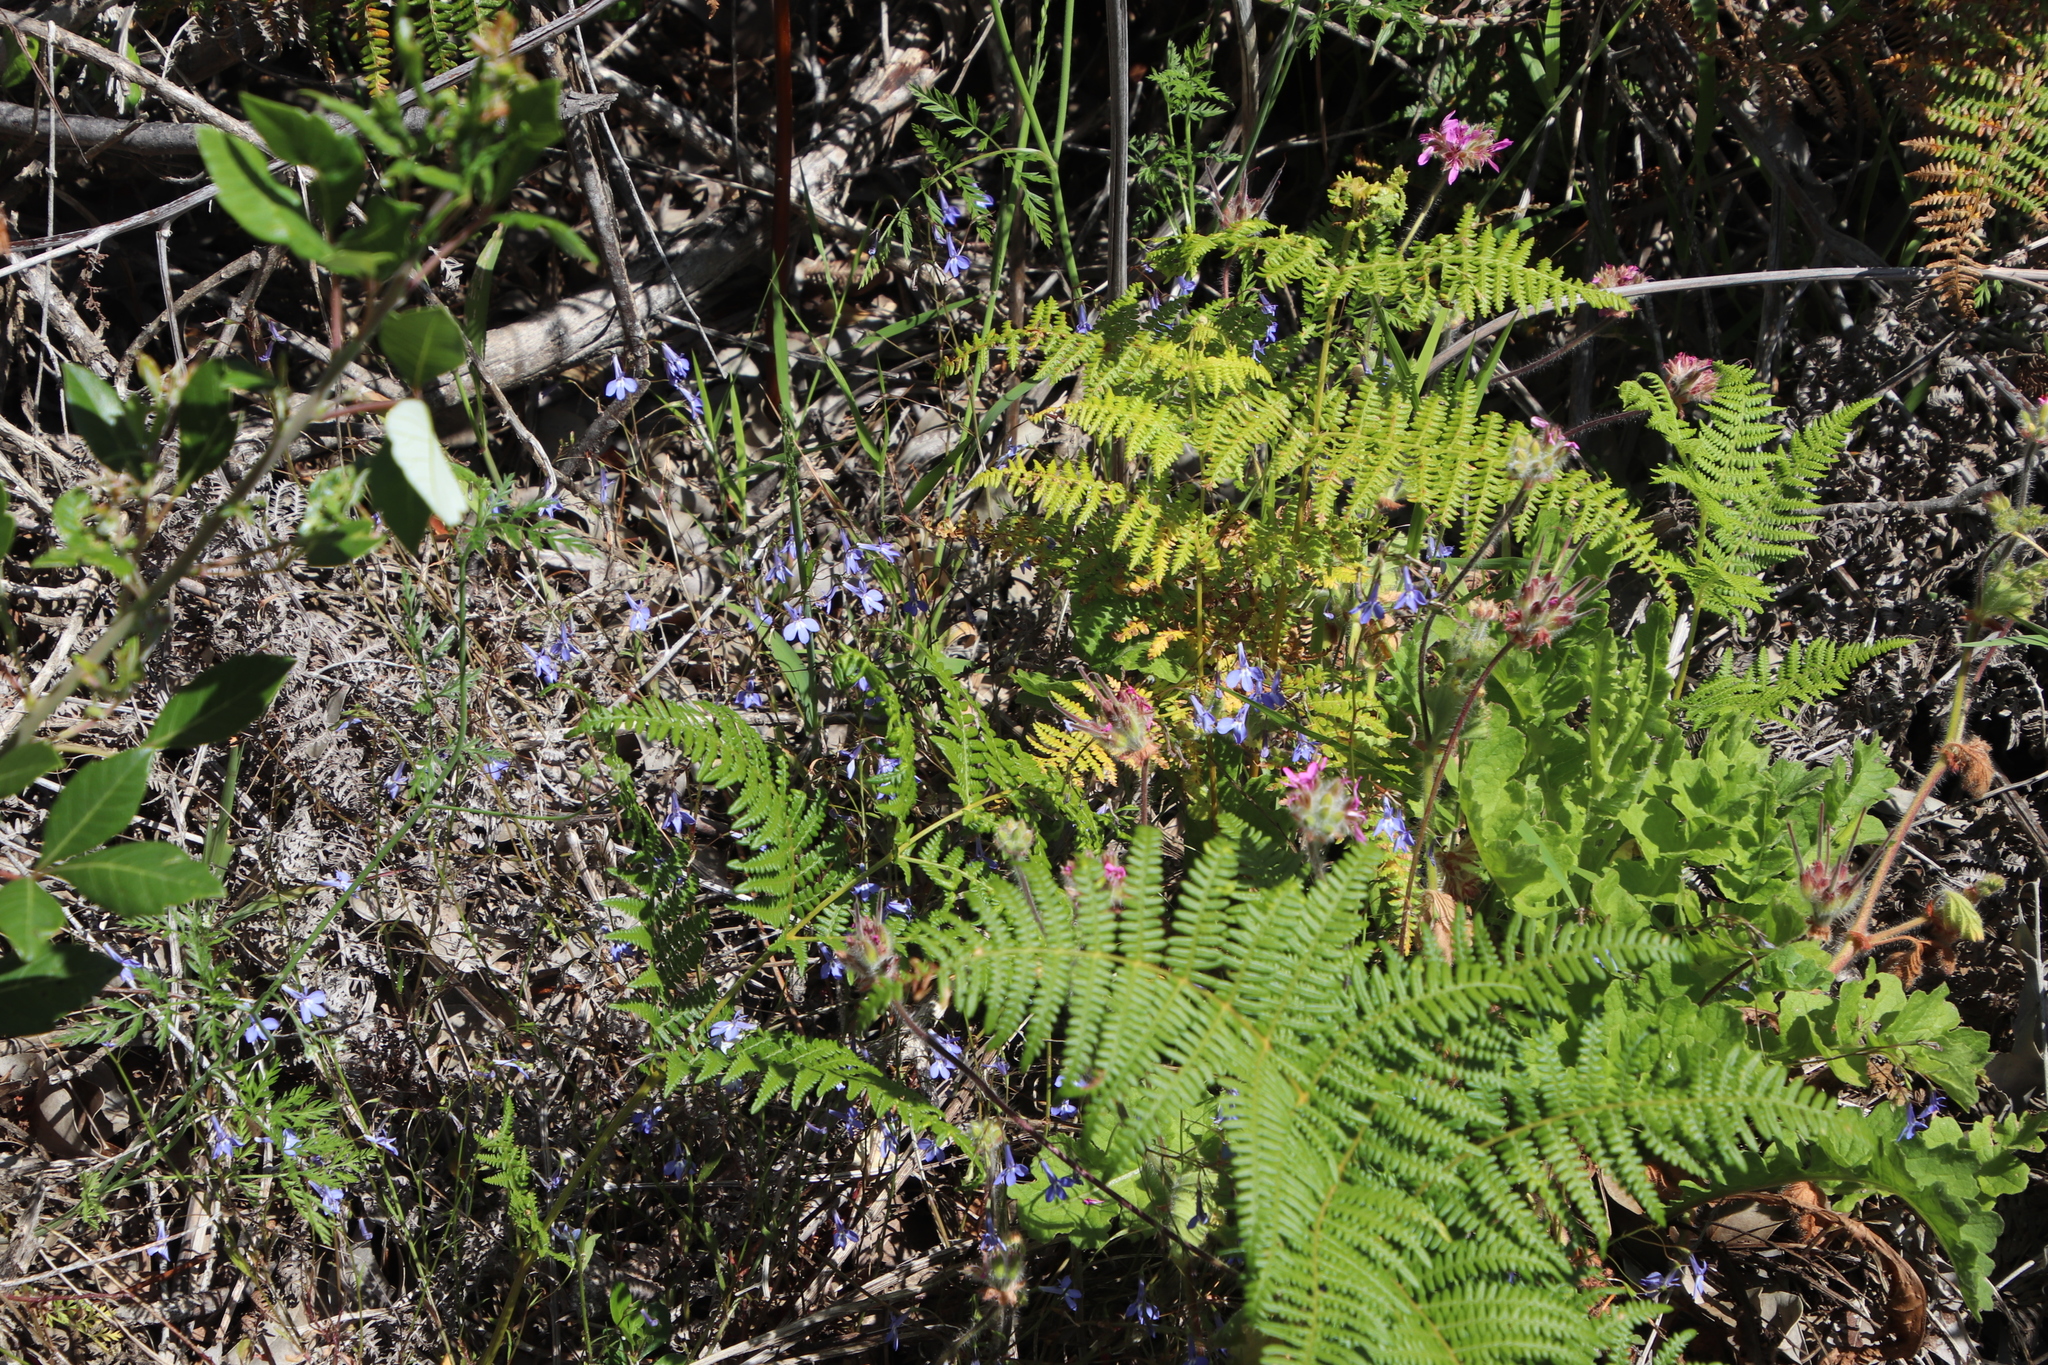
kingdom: Plantae
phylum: Tracheophyta
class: Magnoliopsida
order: Asterales
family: Campanulaceae
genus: Lobelia
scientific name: Lobelia erinus
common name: Edging lobelia
